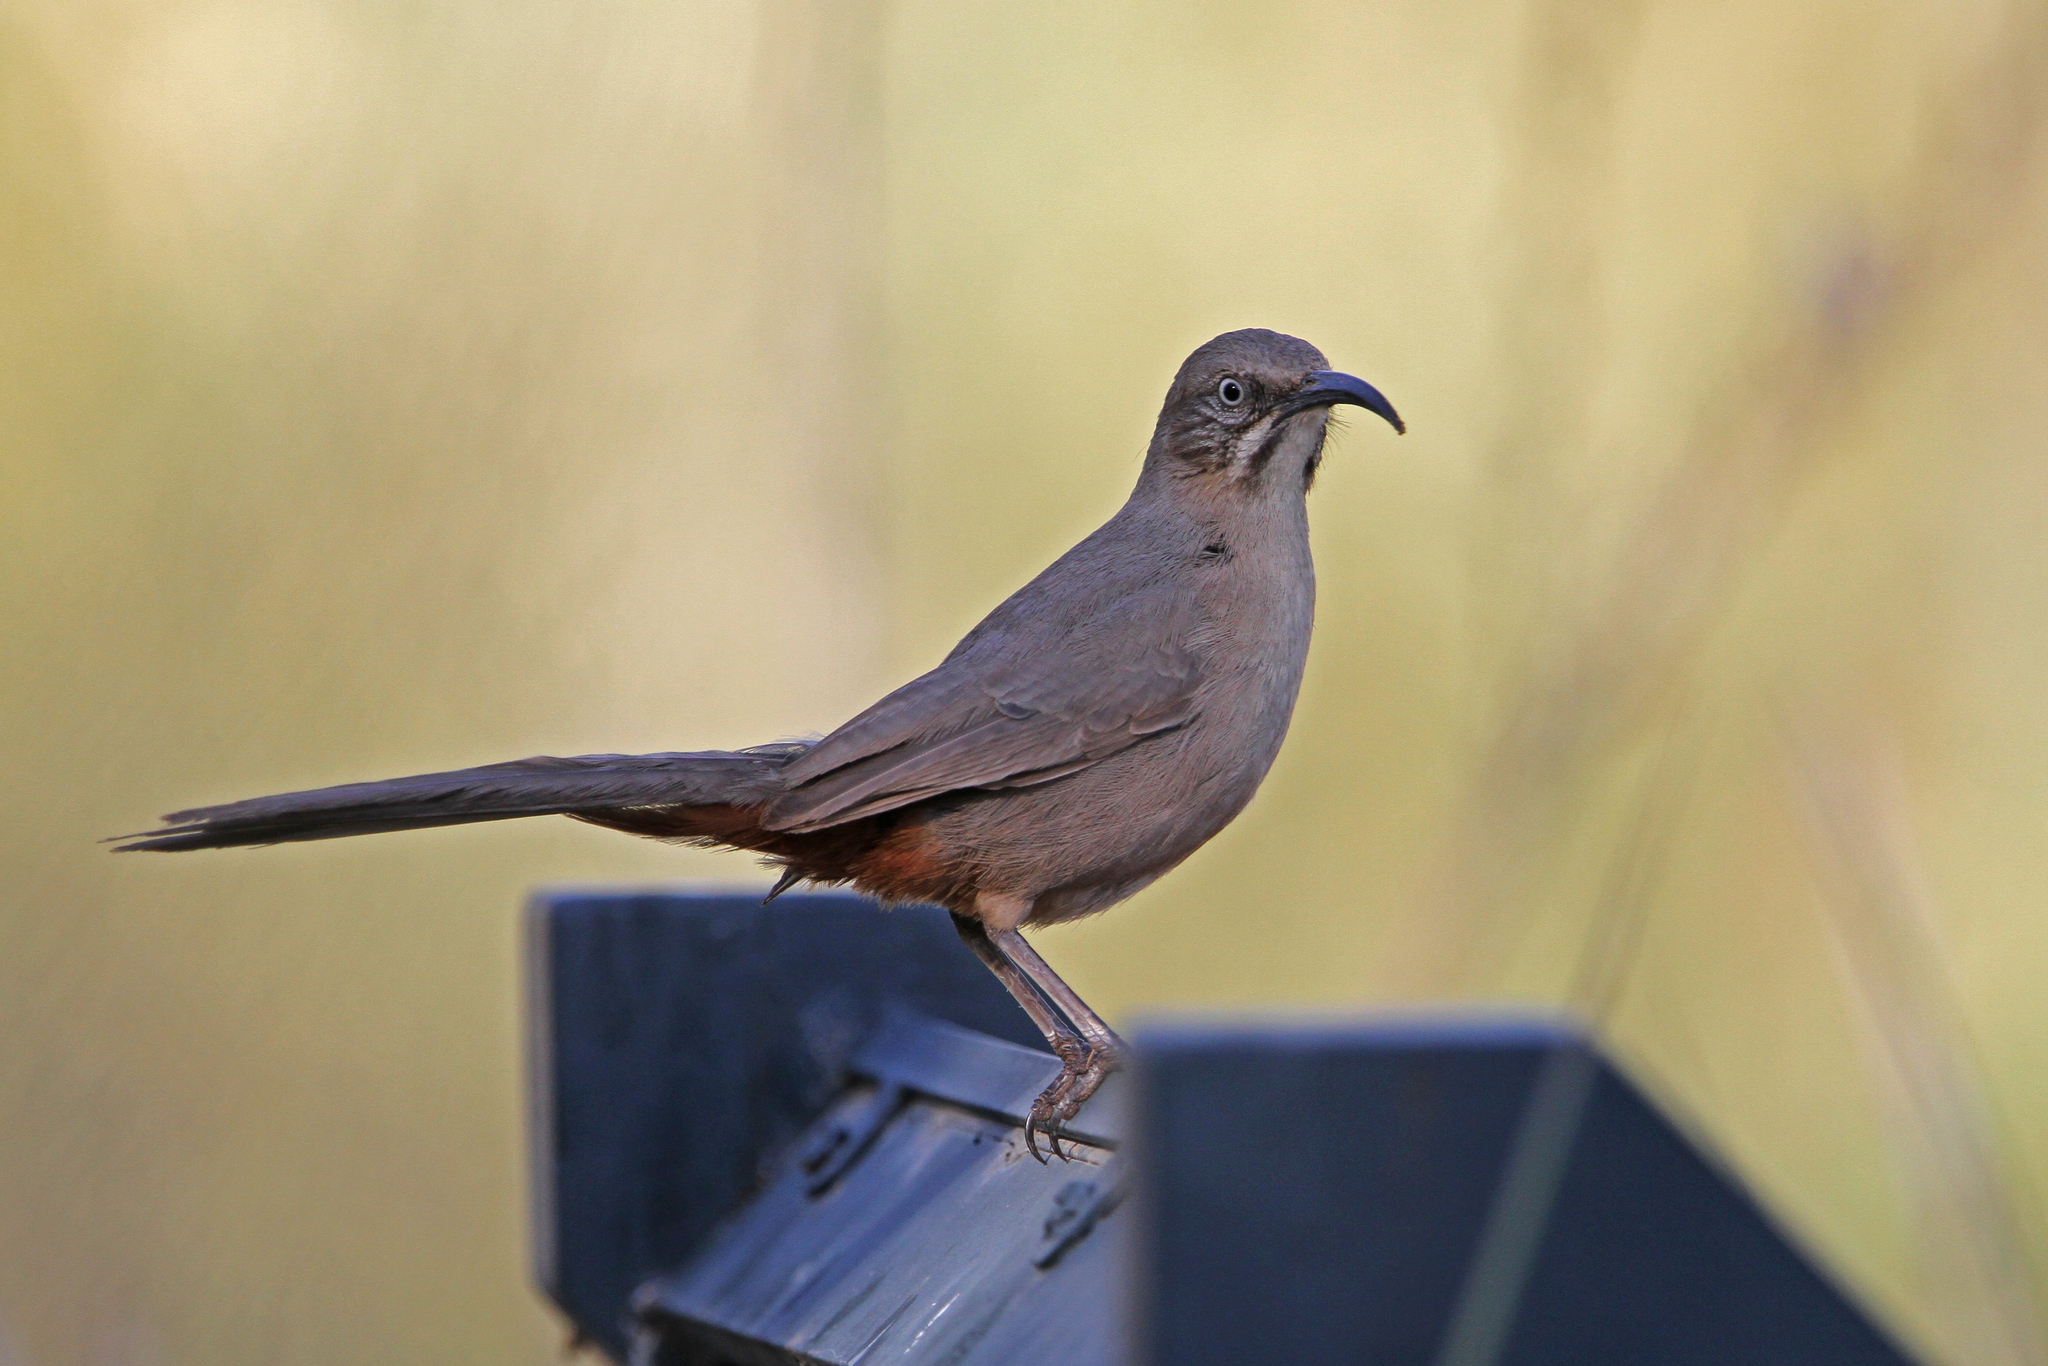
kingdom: Animalia
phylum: Chordata
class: Aves
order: Passeriformes
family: Mimidae
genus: Toxostoma
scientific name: Toxostoma crissale
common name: Crissal thrasher
